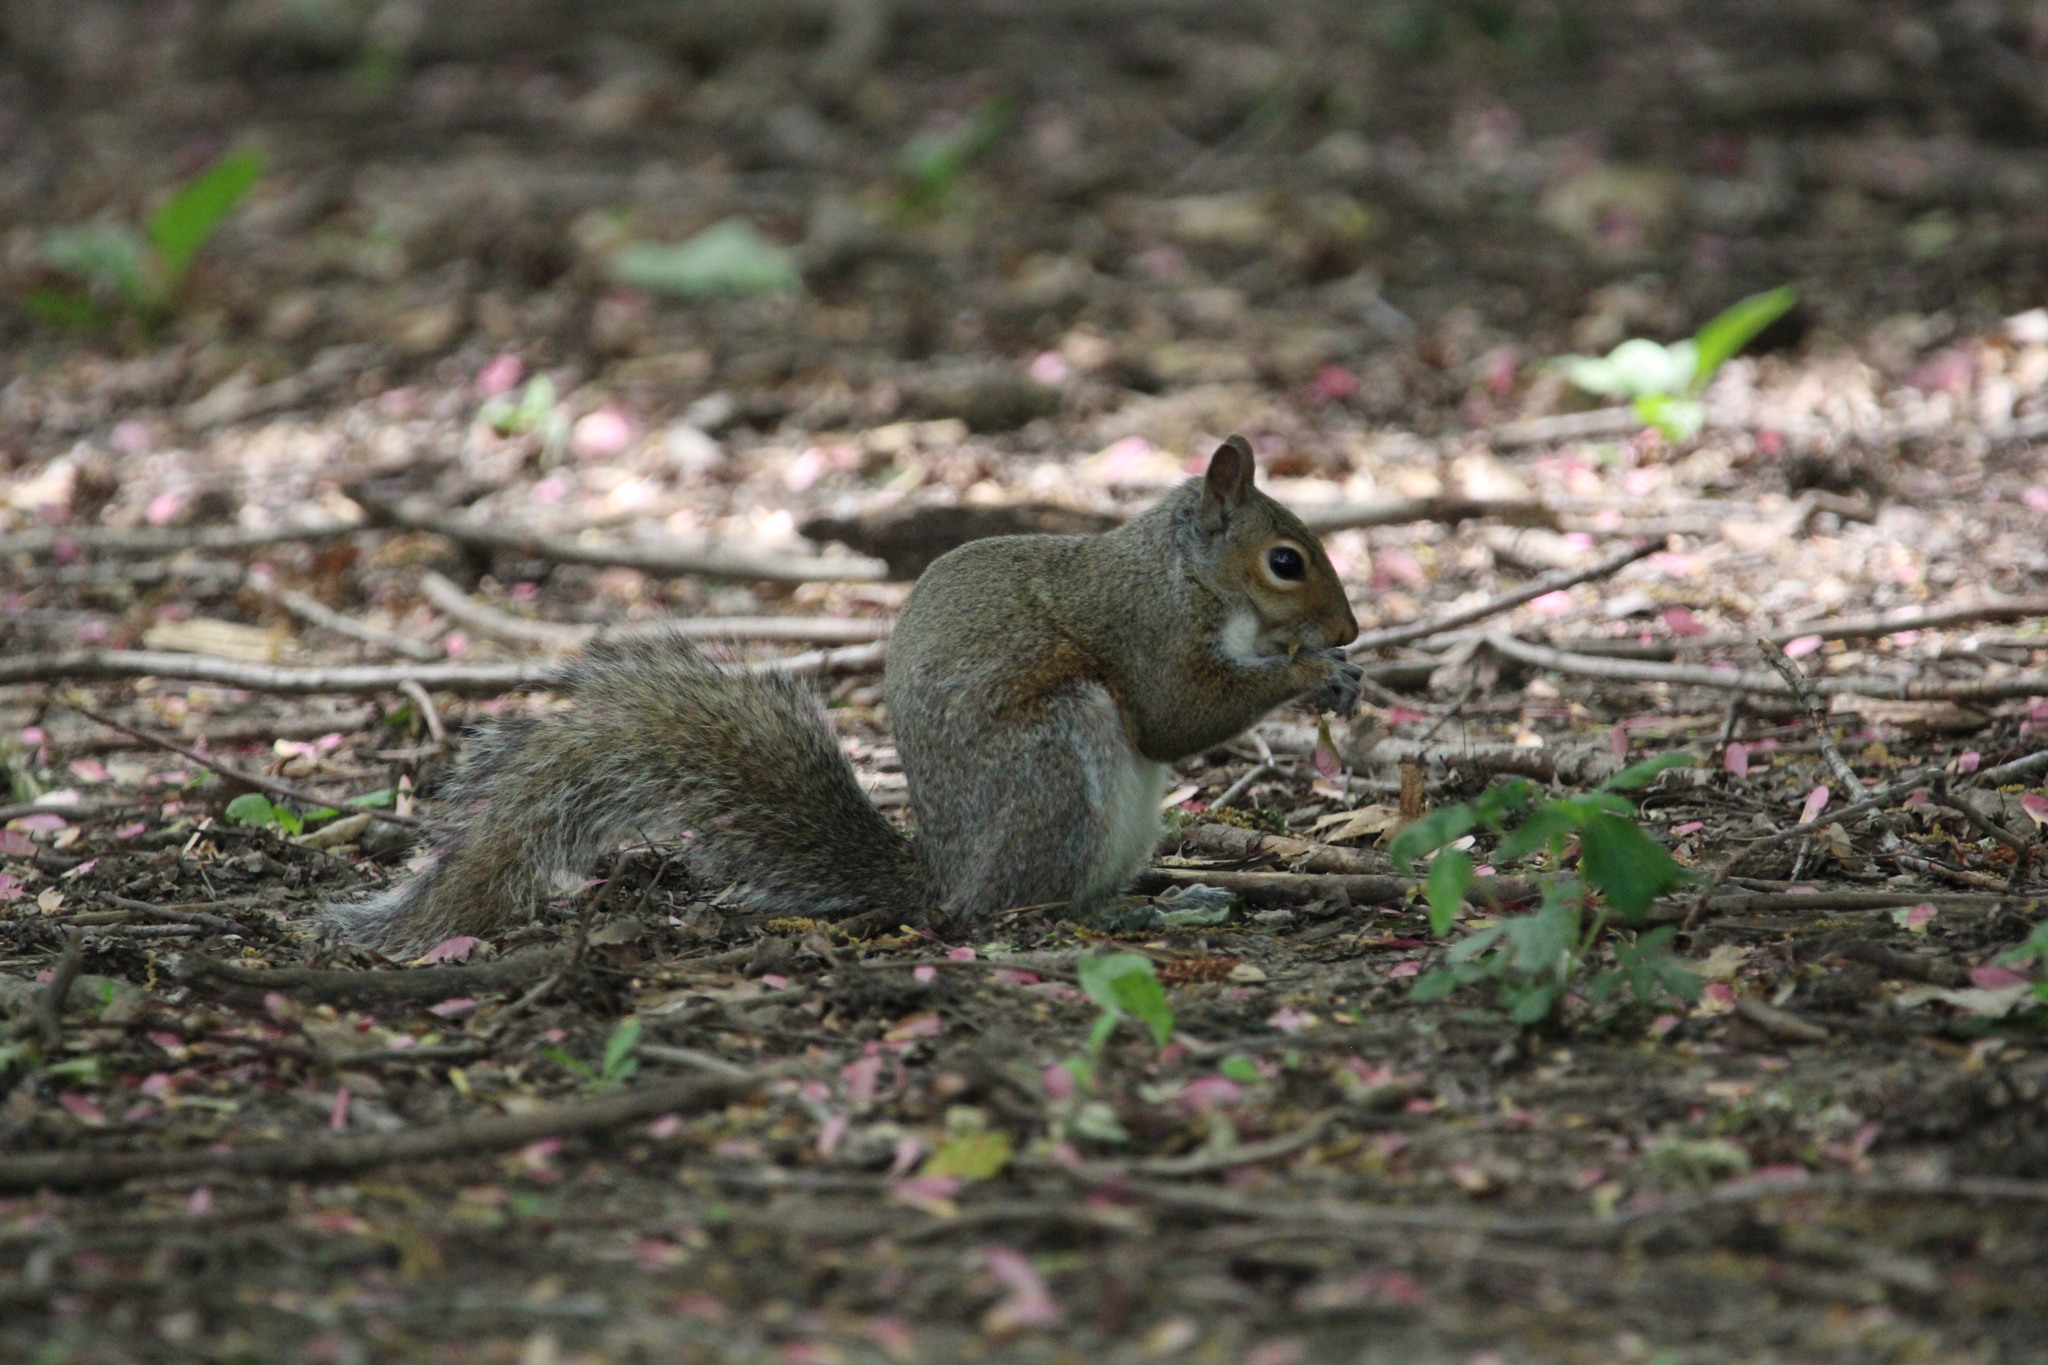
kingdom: Animalia
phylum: Chordata
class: Mammalia
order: Rodentia
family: Sciuridae
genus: Sciurus
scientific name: Sciurus carolinensis
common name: Eastern gray squirrel
